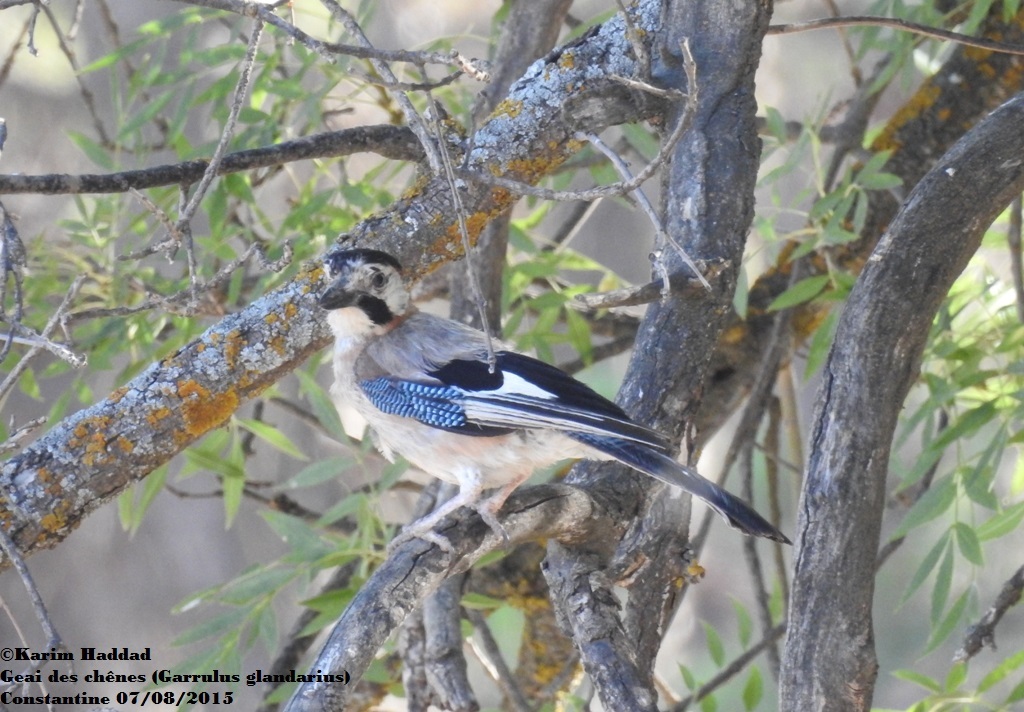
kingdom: Animalia
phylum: Chordata
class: Aves
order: Passeriformes
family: Corvidae
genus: Garrulus
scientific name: Garrulus glandarius
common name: Eurasian jay
